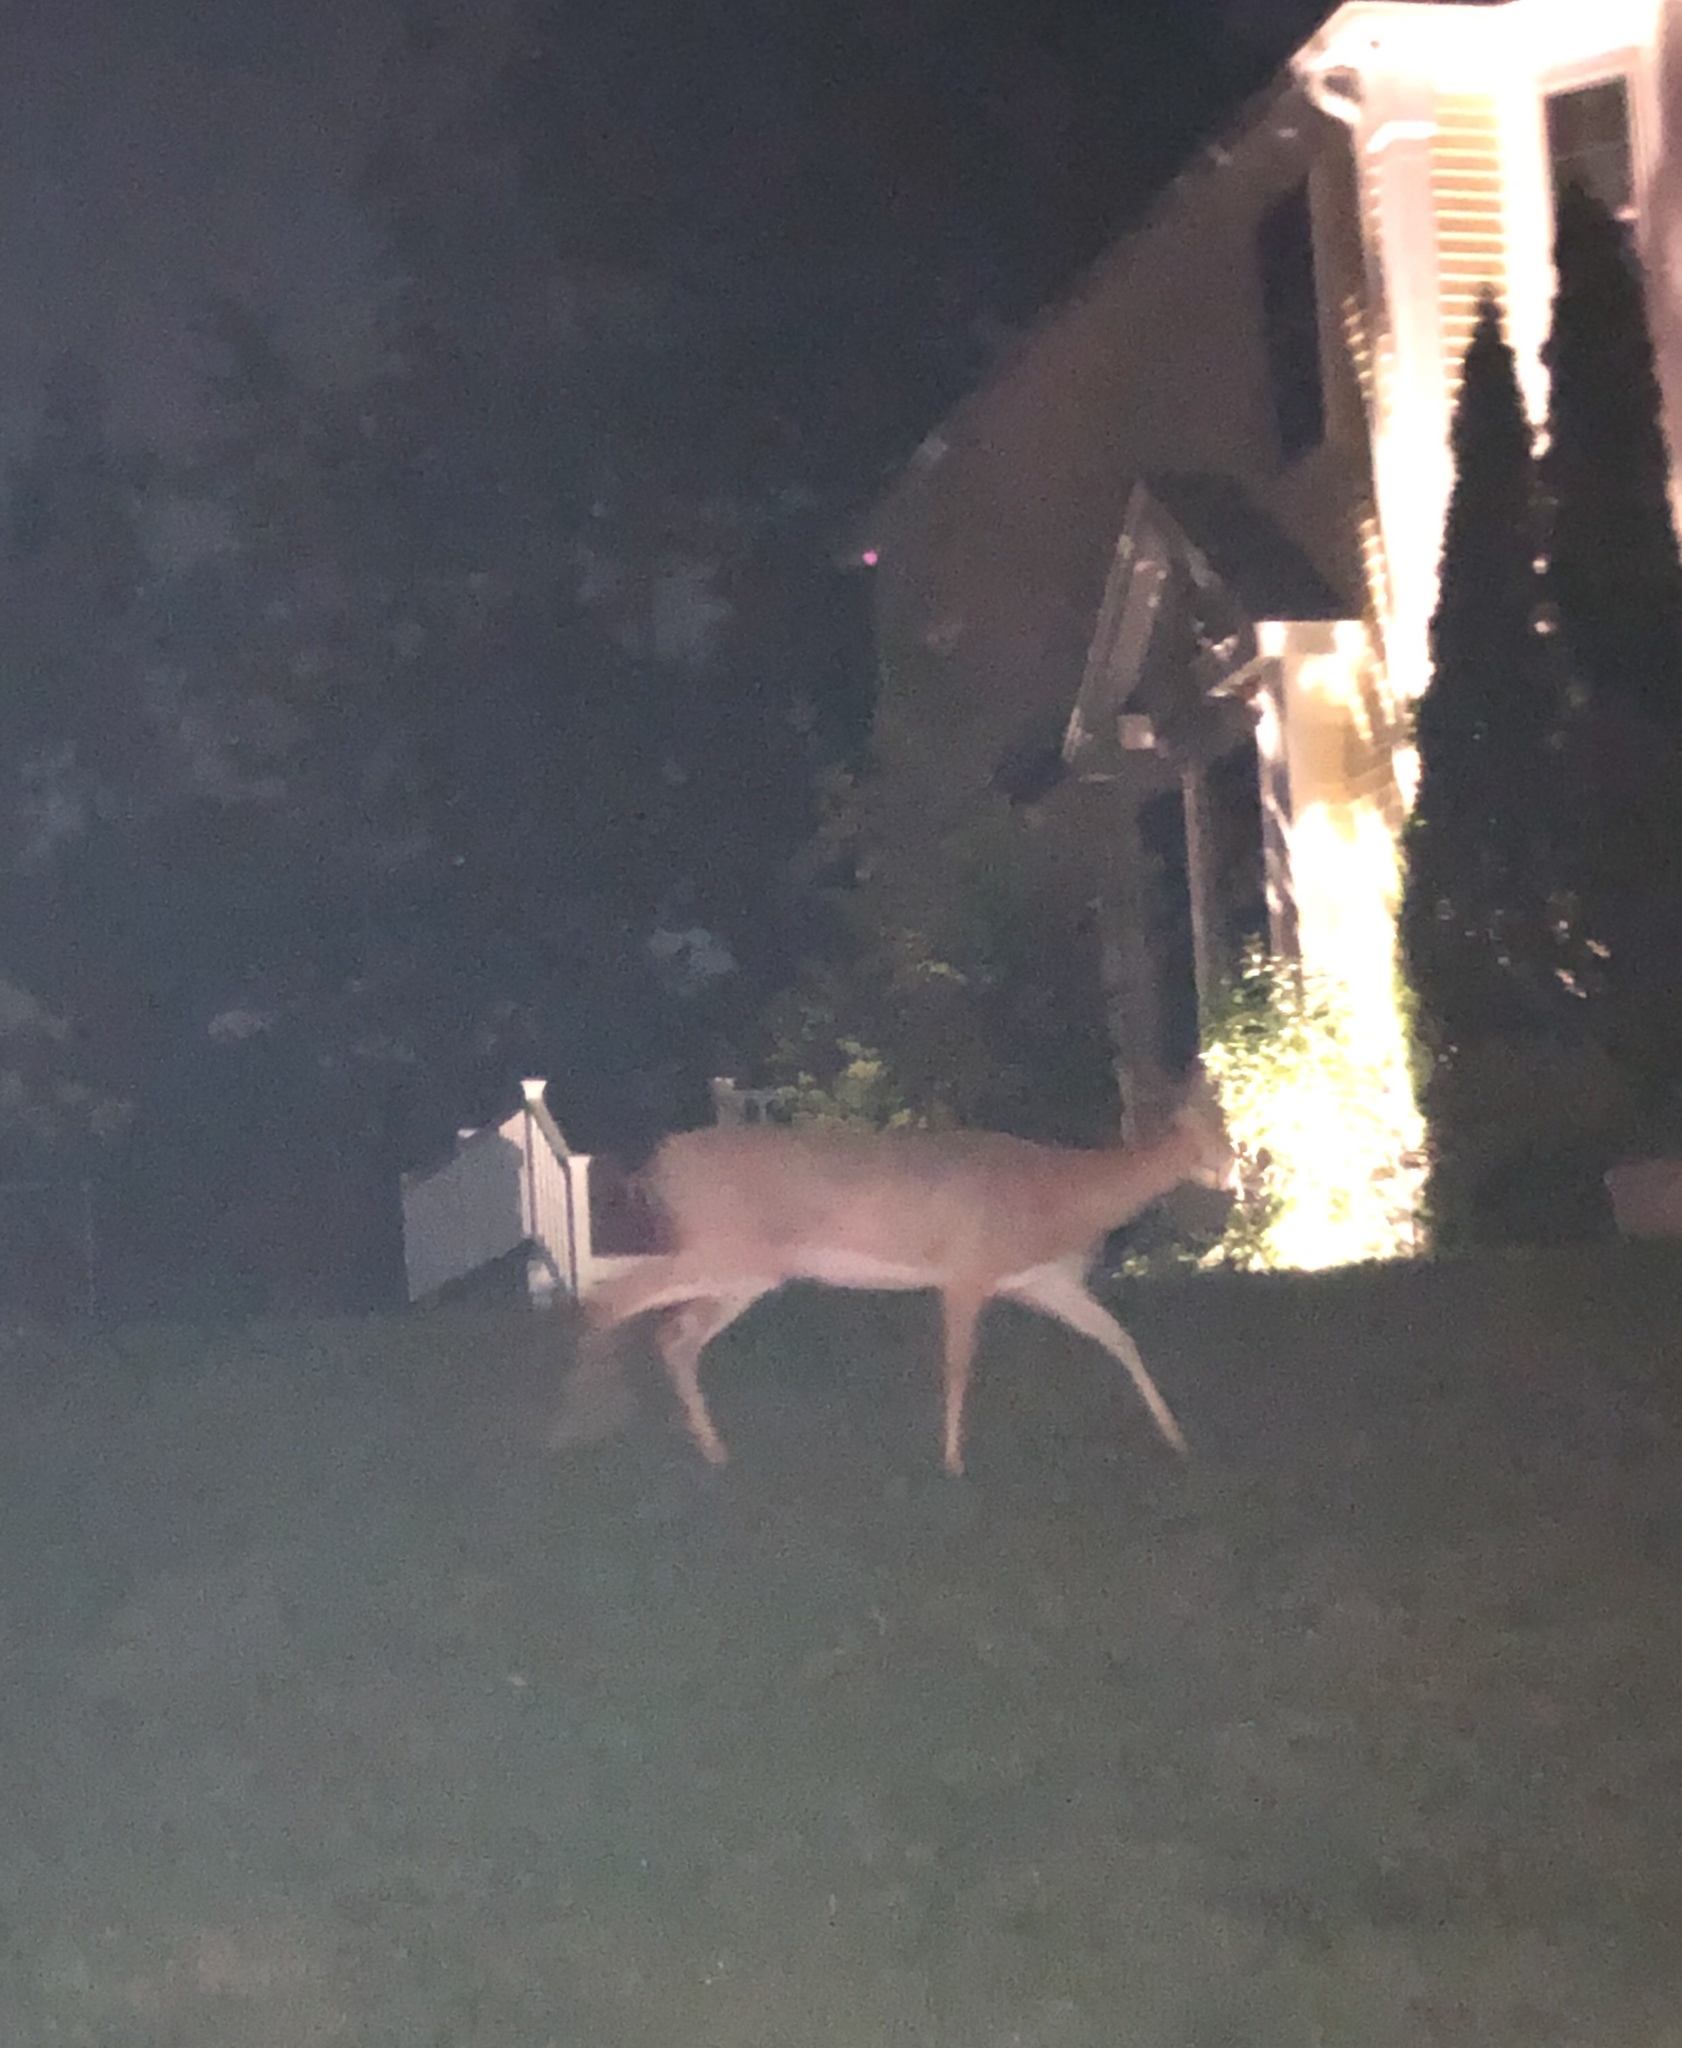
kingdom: Animalia
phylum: Chordata
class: Mammalia
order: Artiodactyla
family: Cervidae
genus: Odocoileus
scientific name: Odocoileus virginianus
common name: White-tailed deer
